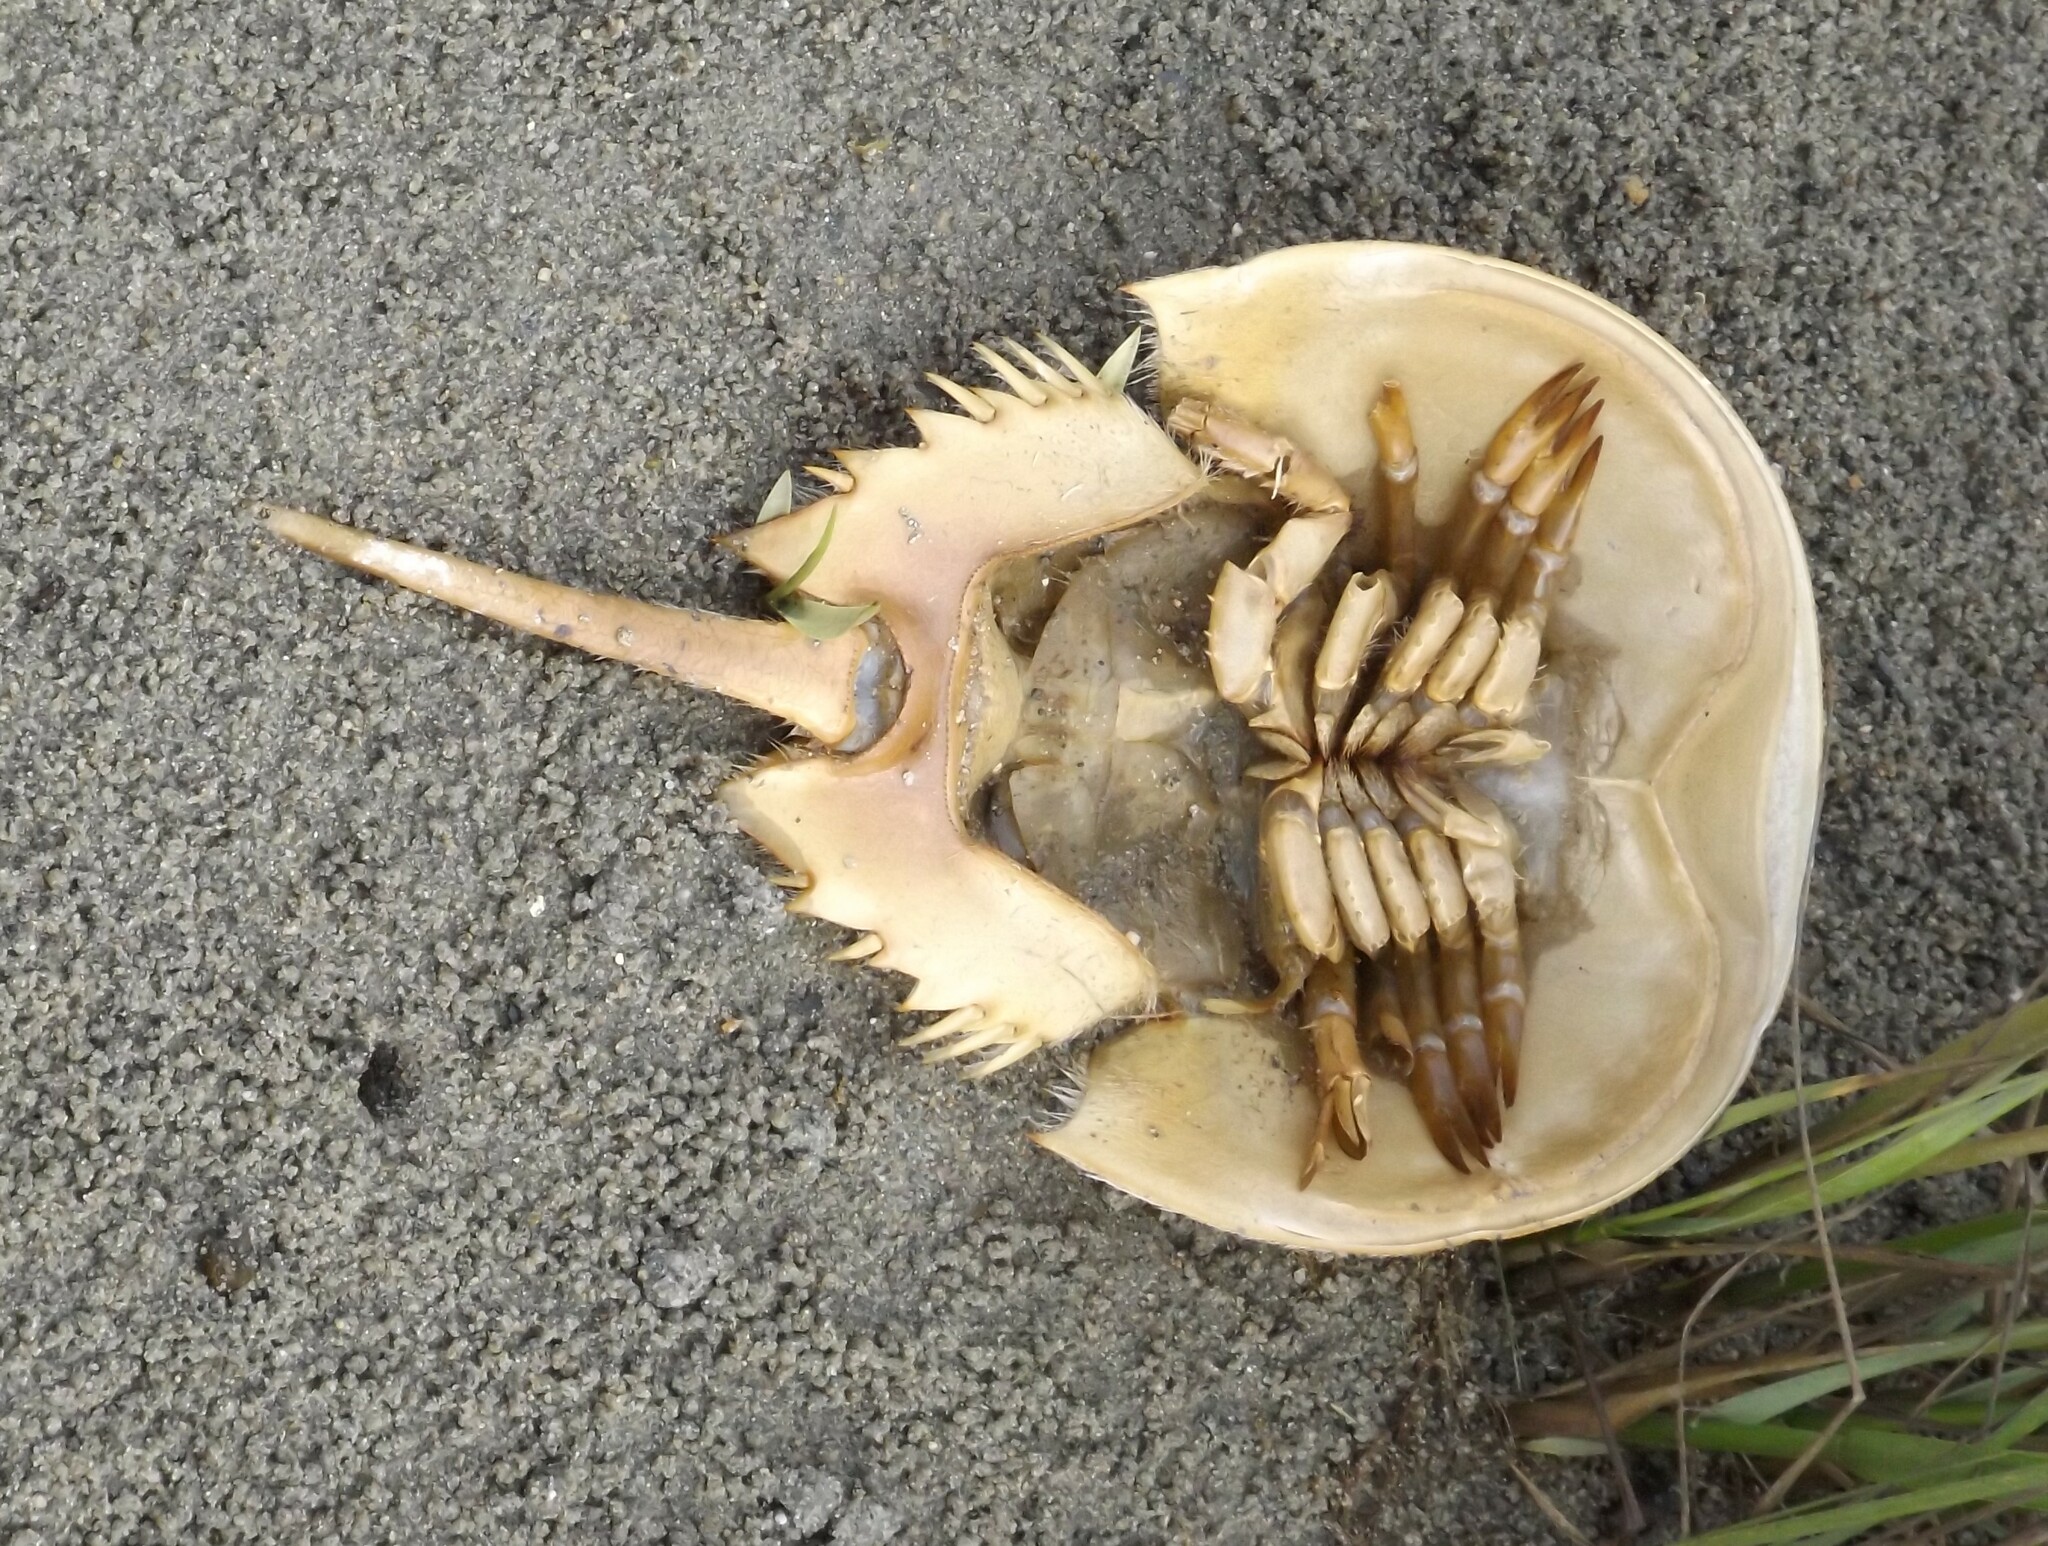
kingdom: Animalia
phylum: Arthropoda
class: Merostomata
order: Xiphosurida
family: Limulidae
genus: Limulus
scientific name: Limulus polyphemus
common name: Horseshoe crab
